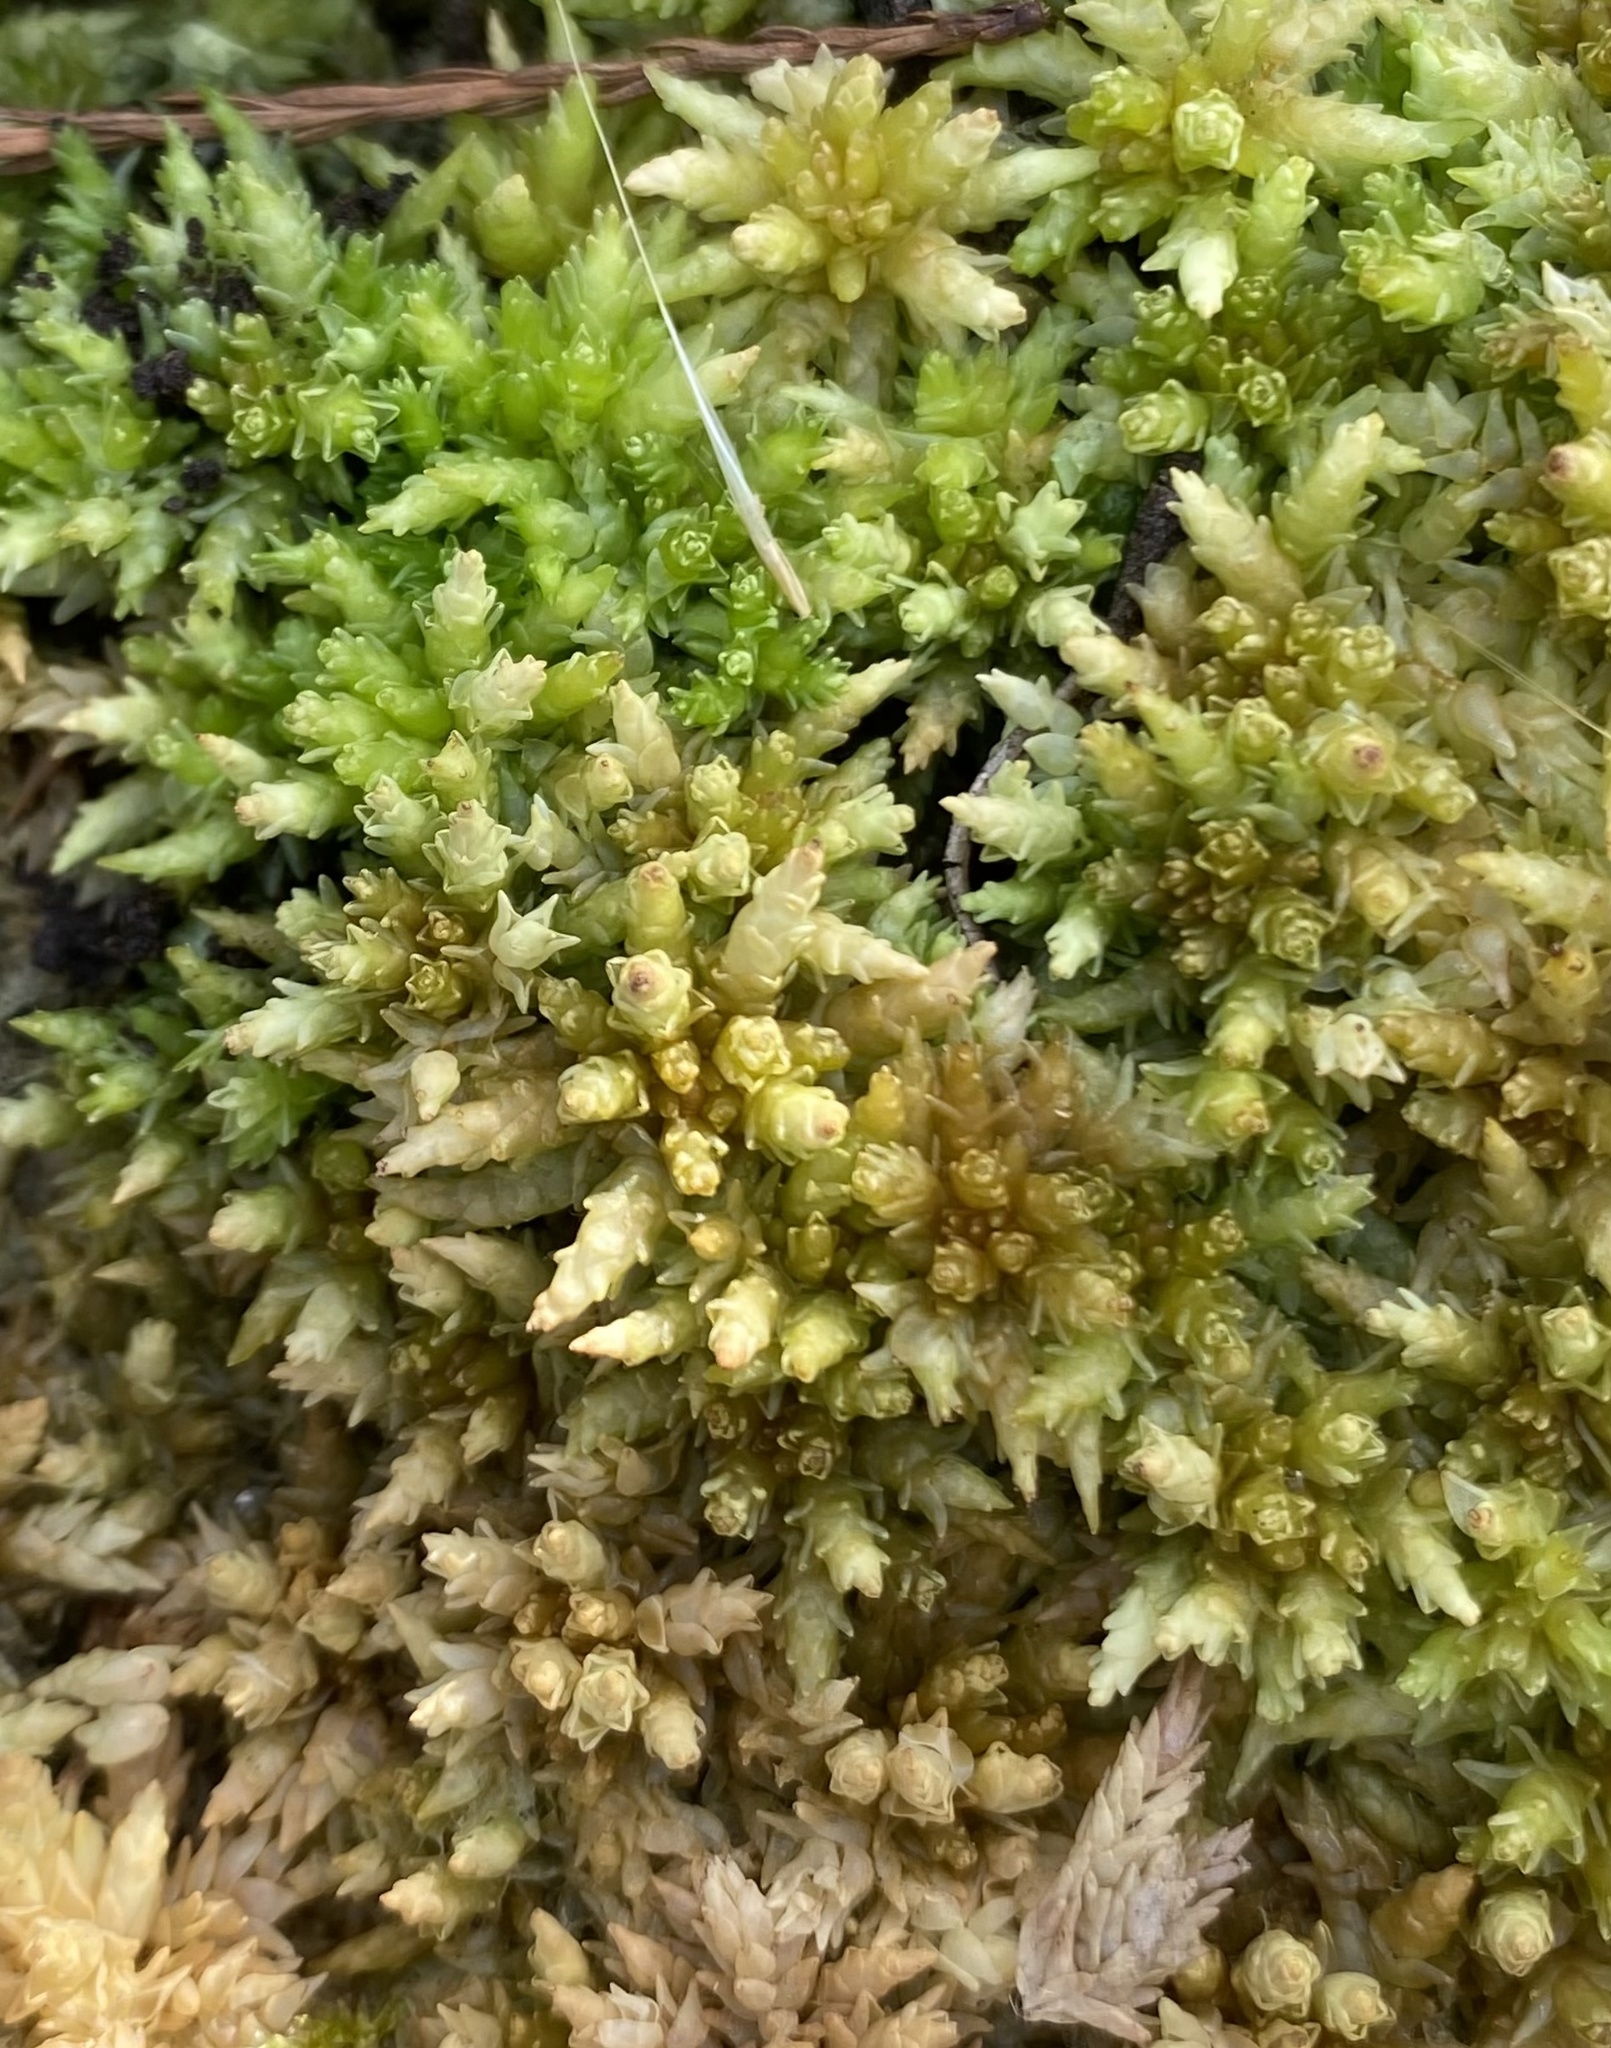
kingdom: Plantae
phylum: Bryophyta
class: Sphagnopsida
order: Sphagnales
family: Sphagnaceae
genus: Sphagnum
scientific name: Sphagnum perichaetiale
